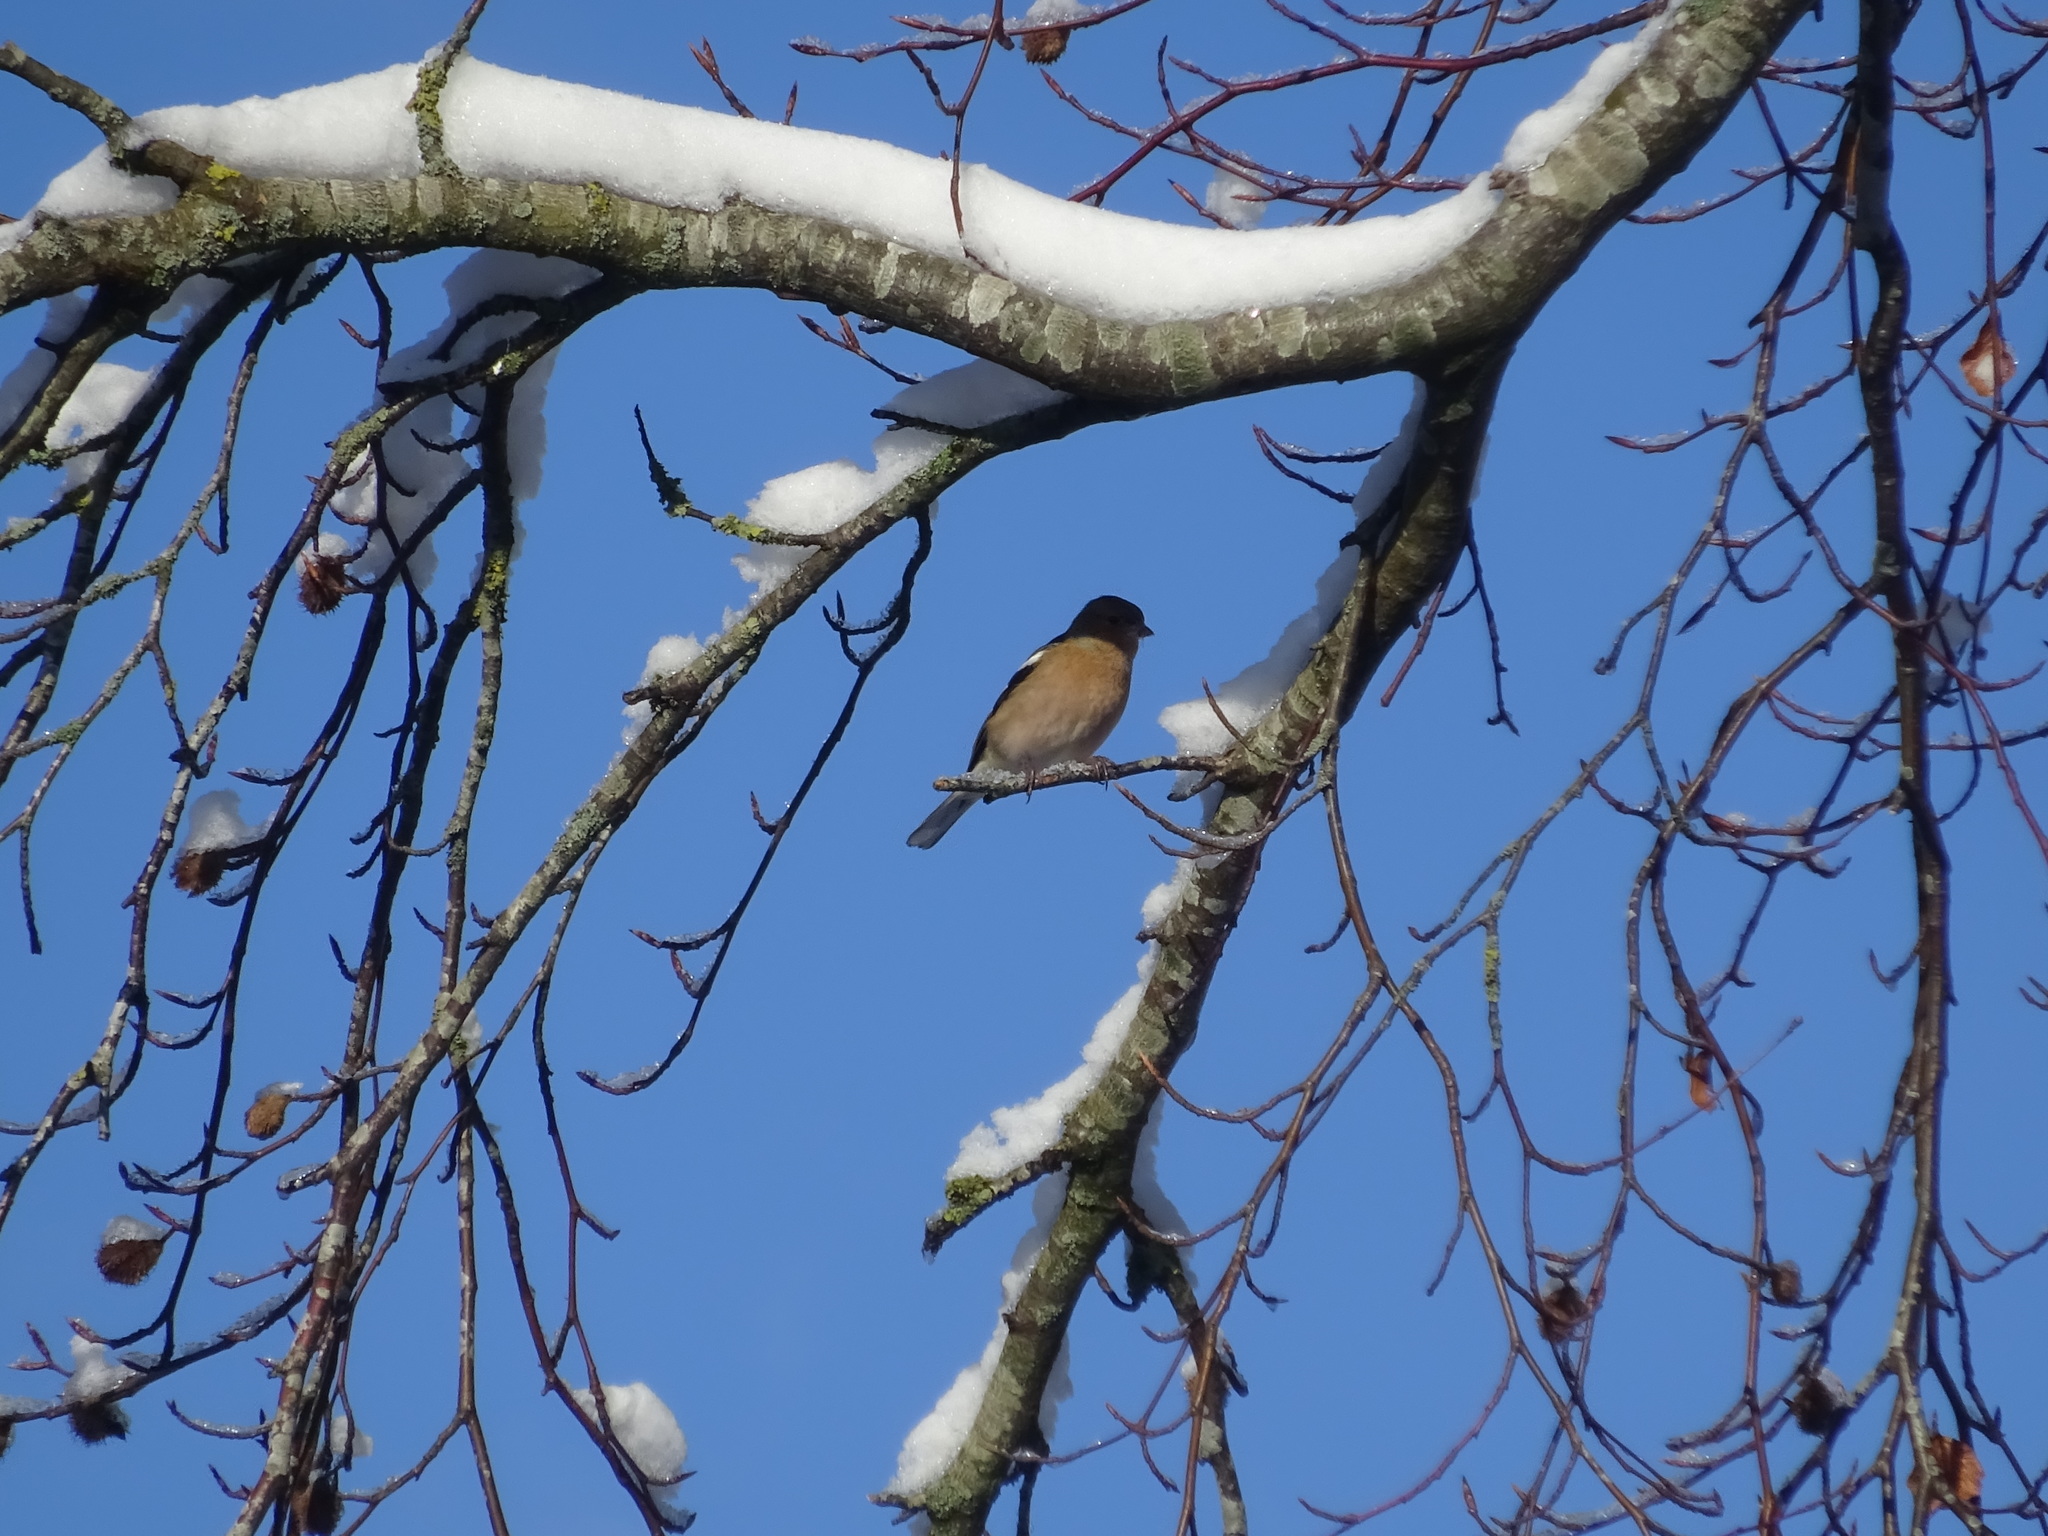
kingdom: Animalia
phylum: Chordata
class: Aves
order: Passeriformes
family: Fringillidae
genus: Fringilla
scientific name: Fringilla coelebs
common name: Common chaffinch
